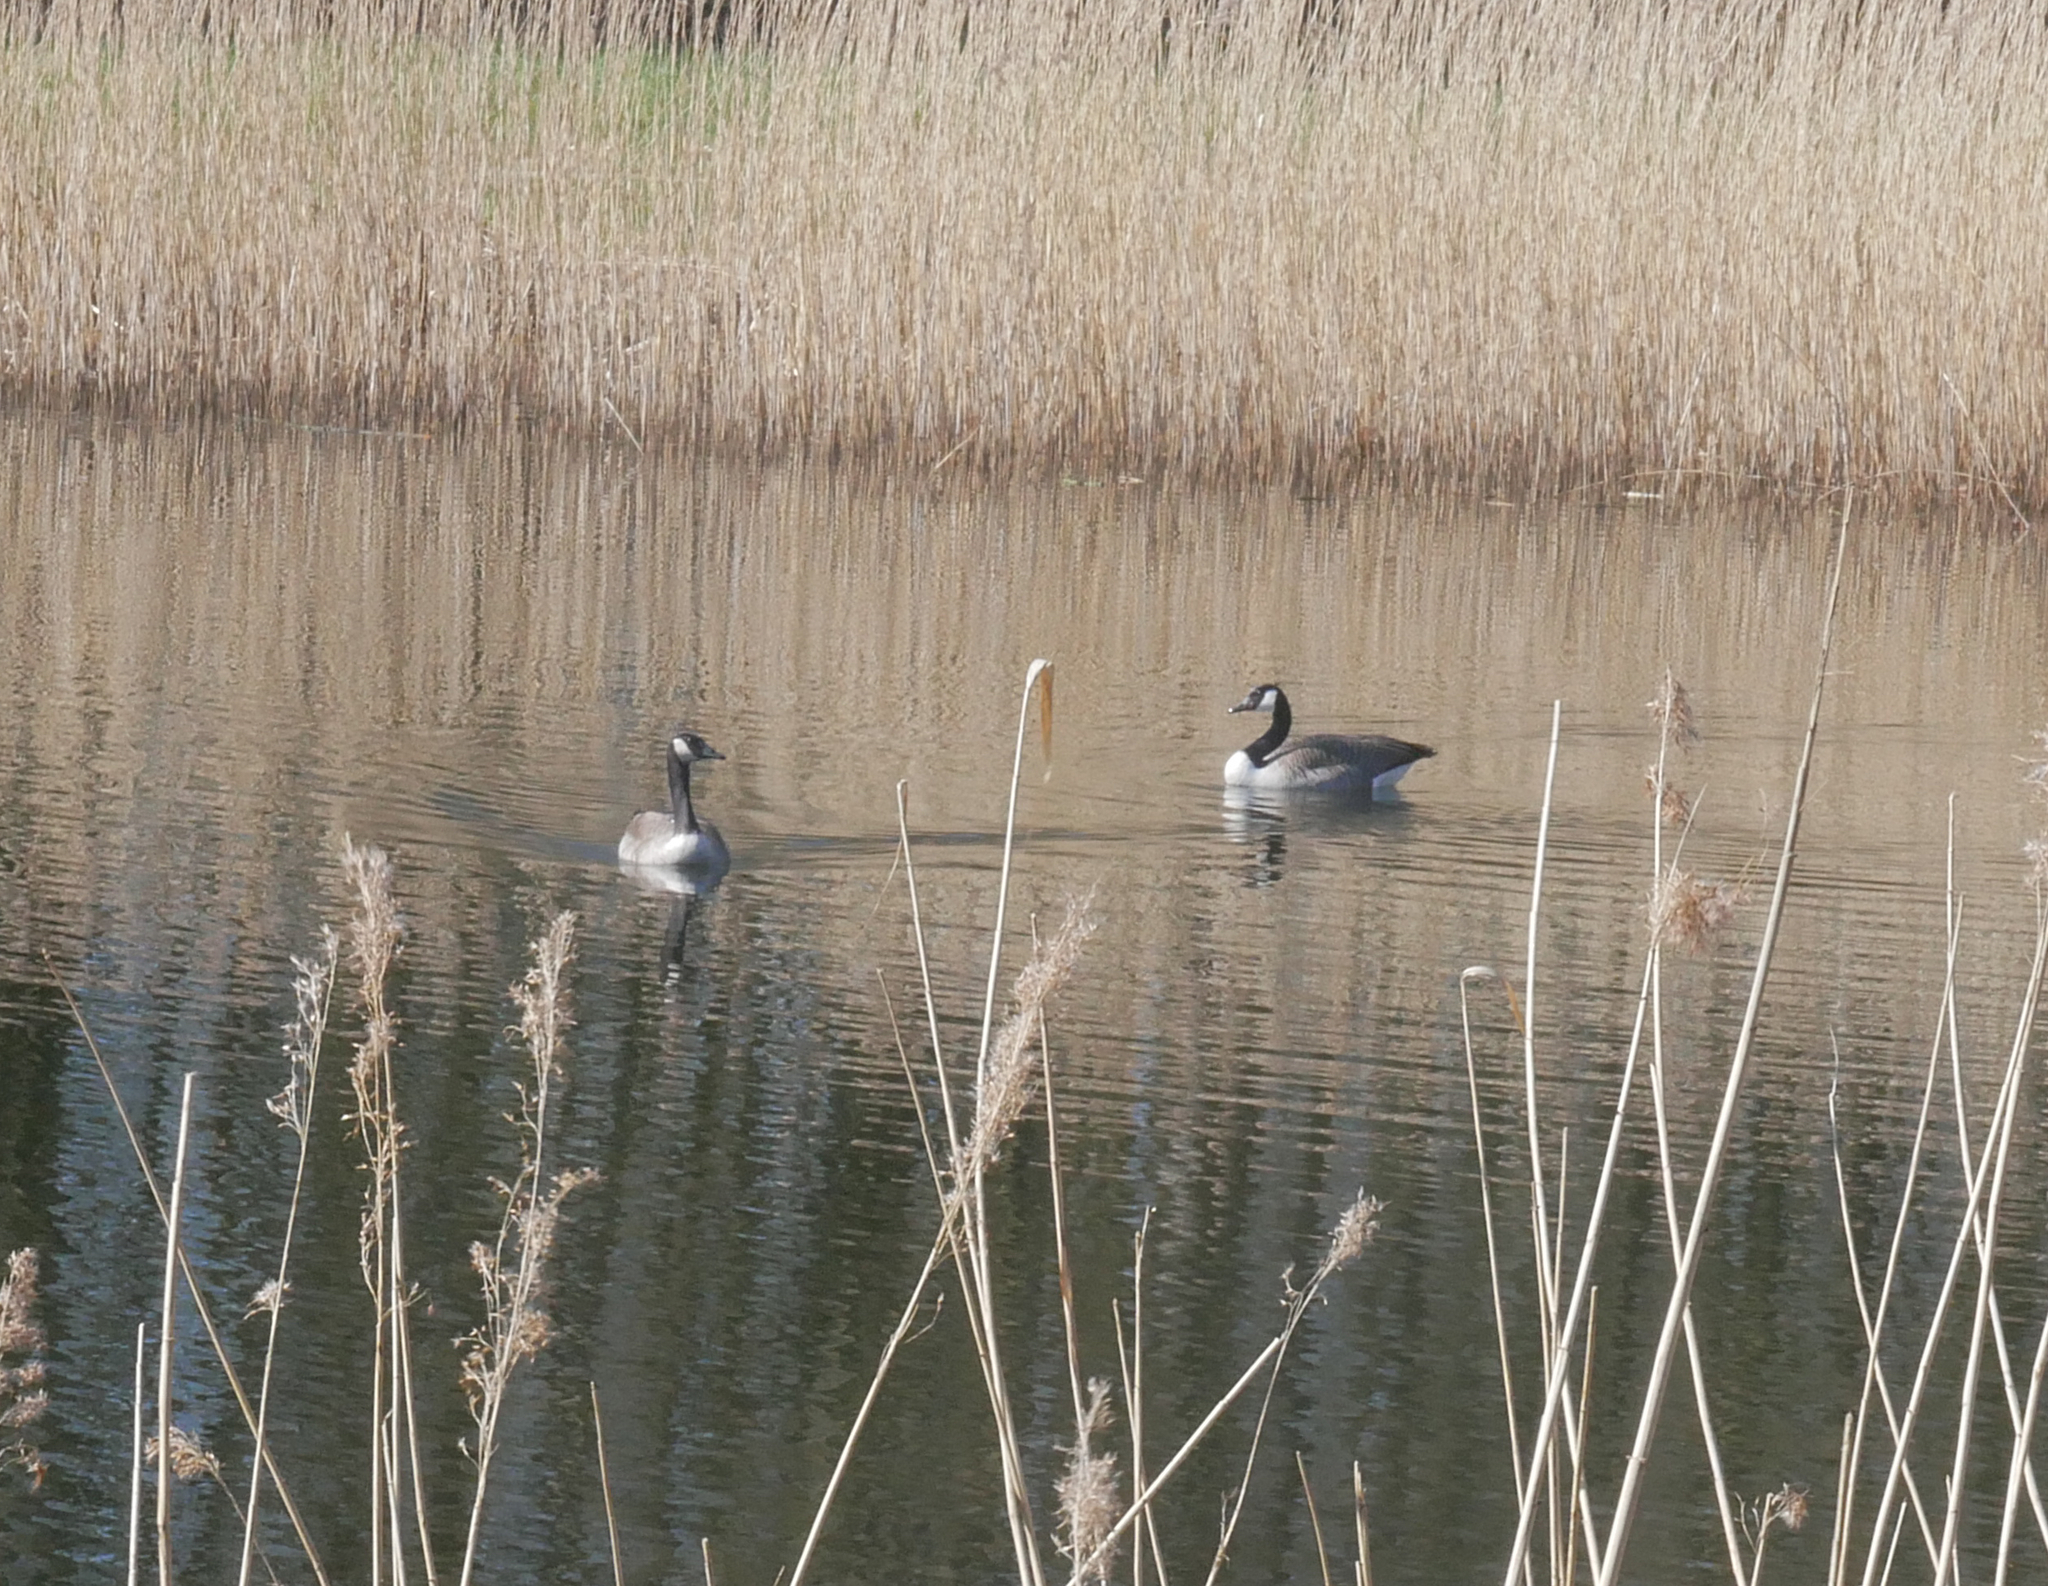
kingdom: Animalia
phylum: Chordata
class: Aves
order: Anseriformes
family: Anatidae
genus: Branta
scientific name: Branta canadensis
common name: Canada goose
